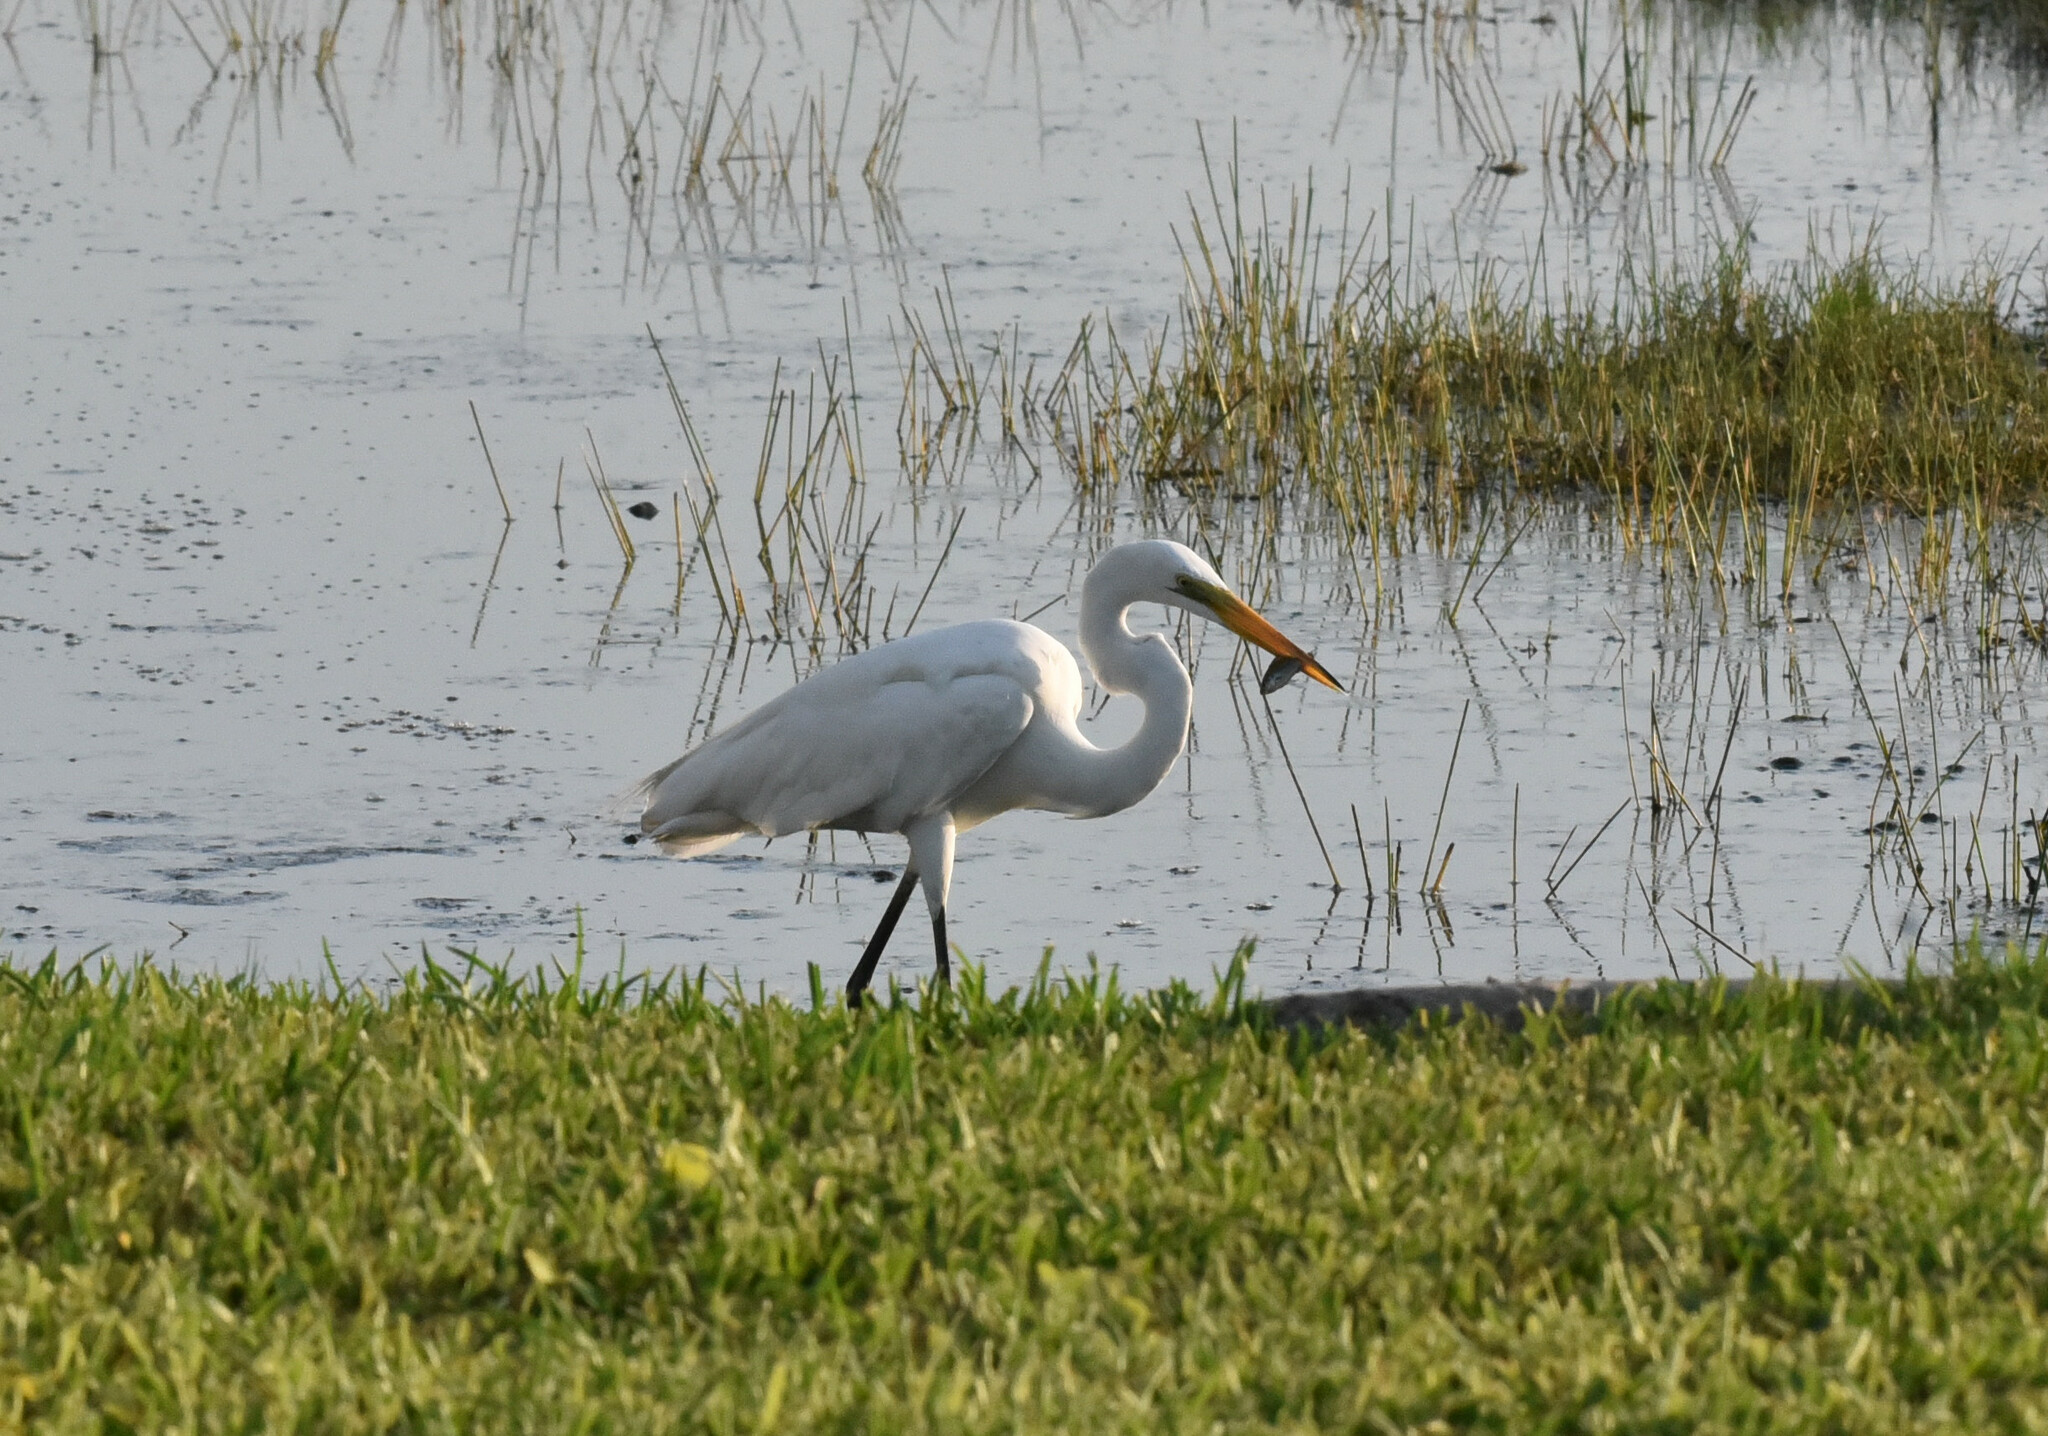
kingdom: Animalia
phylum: Chordata
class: Aves
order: Pelecaniformes
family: Ardeidae
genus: Ardea
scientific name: Ardea alba
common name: Great egret
